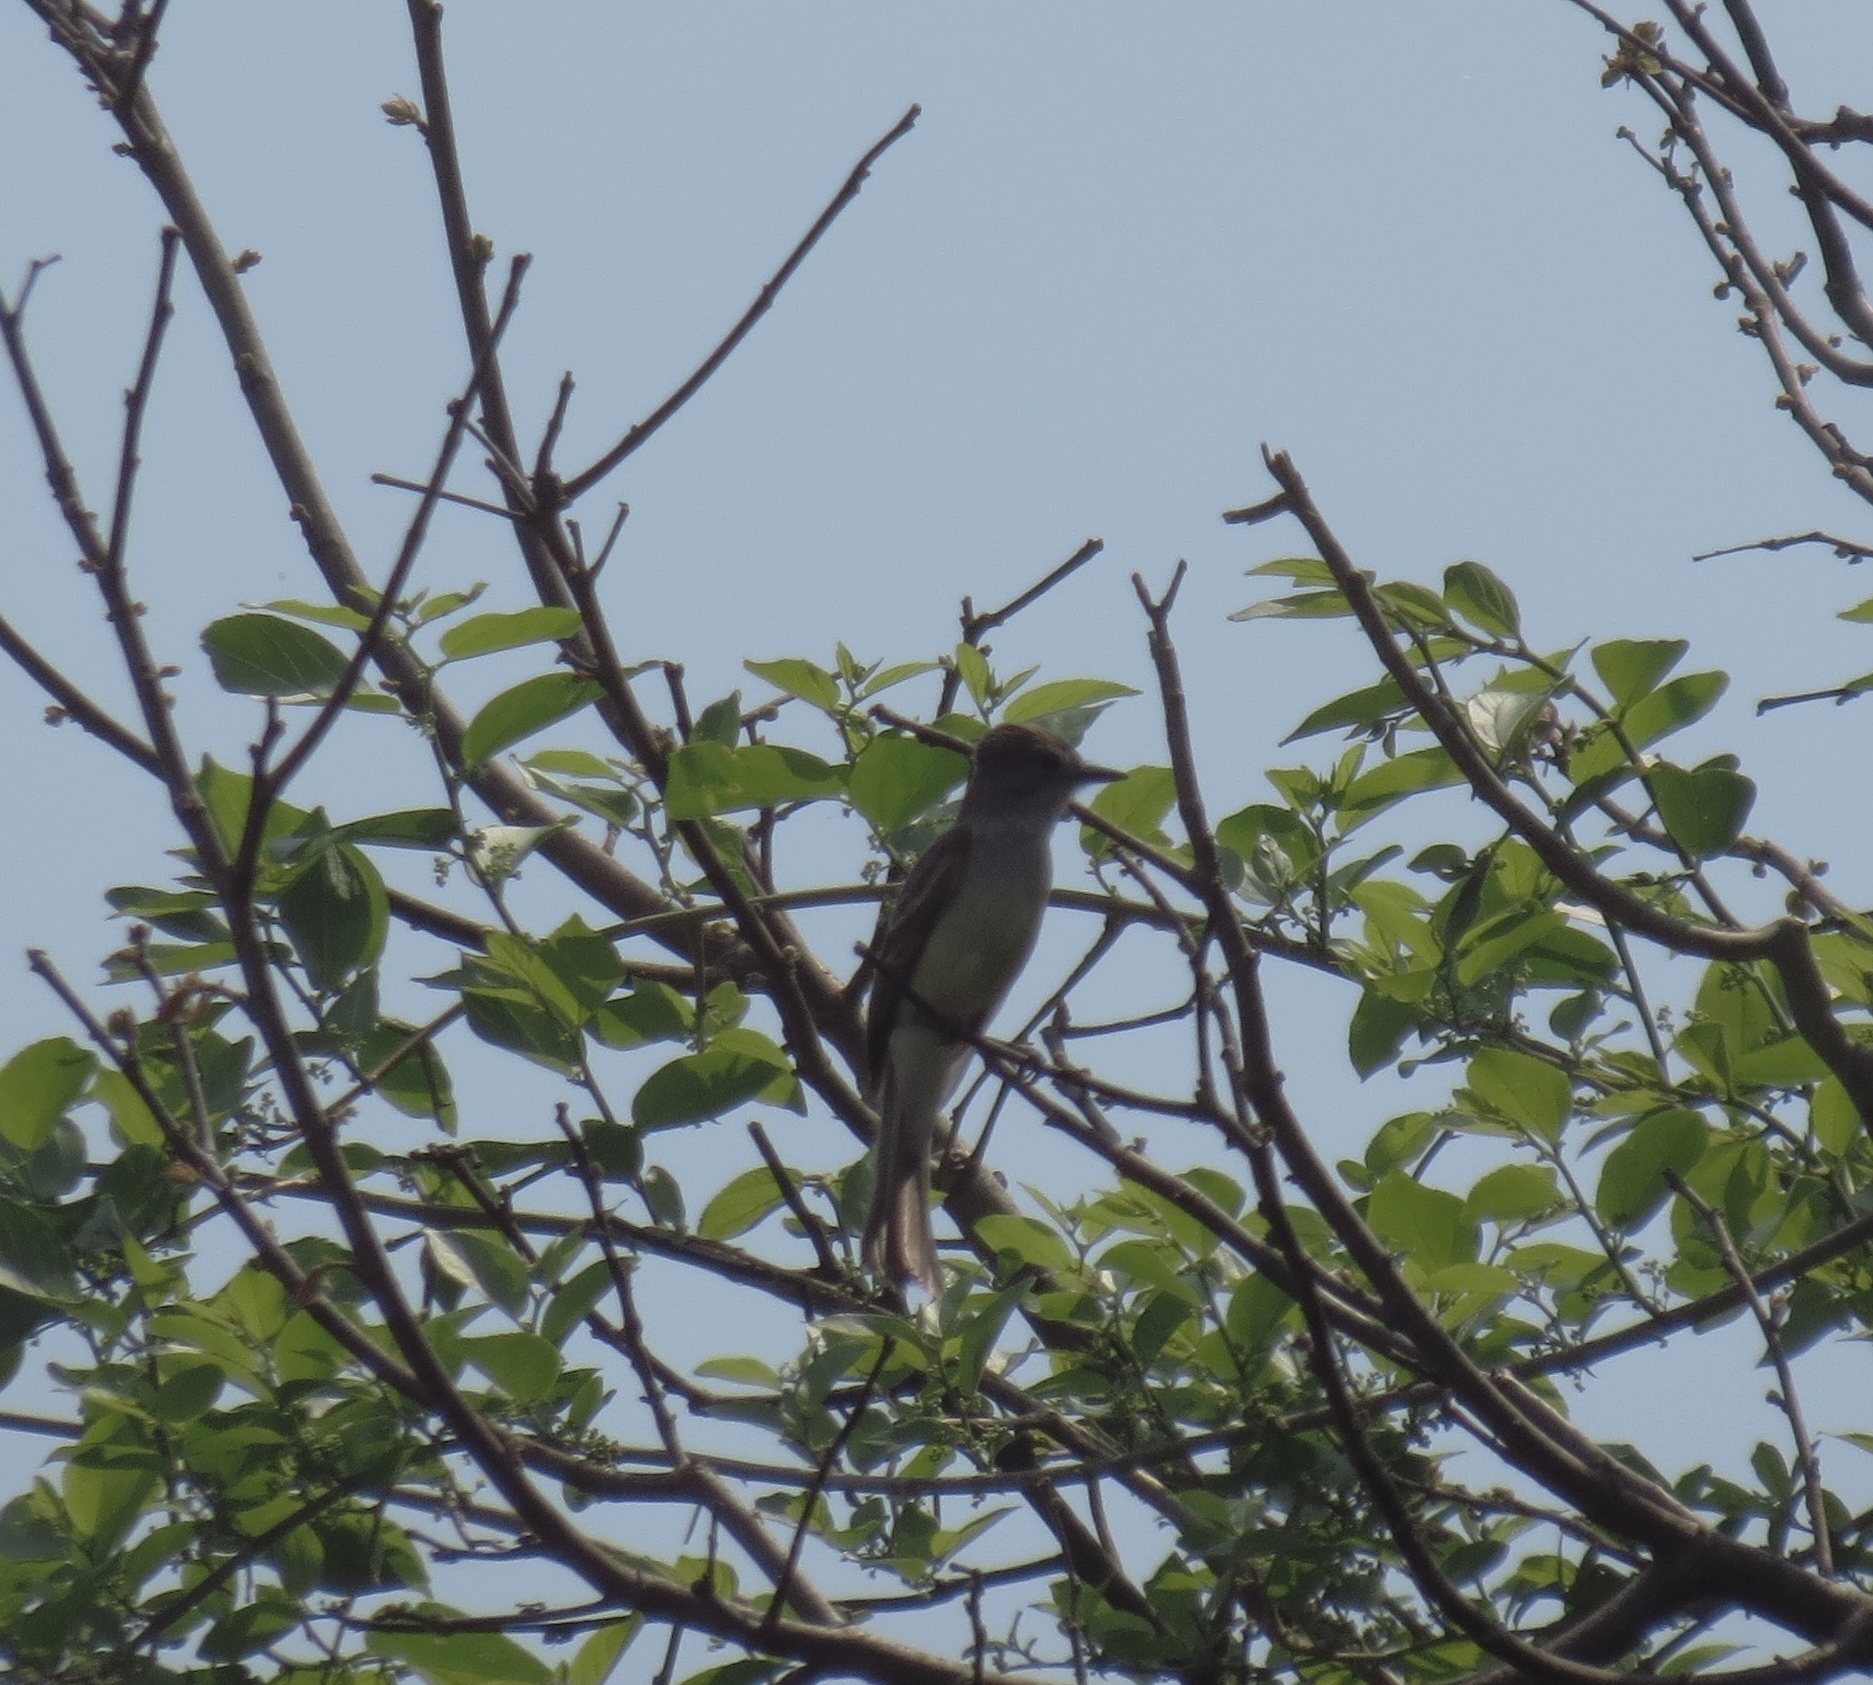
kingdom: Animalia
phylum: Chordata
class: Aves
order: Passeriformes
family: Tyrannidae
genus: Myiarchus
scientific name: Myiarchus nuttingi
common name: Nutting's flycatcher
